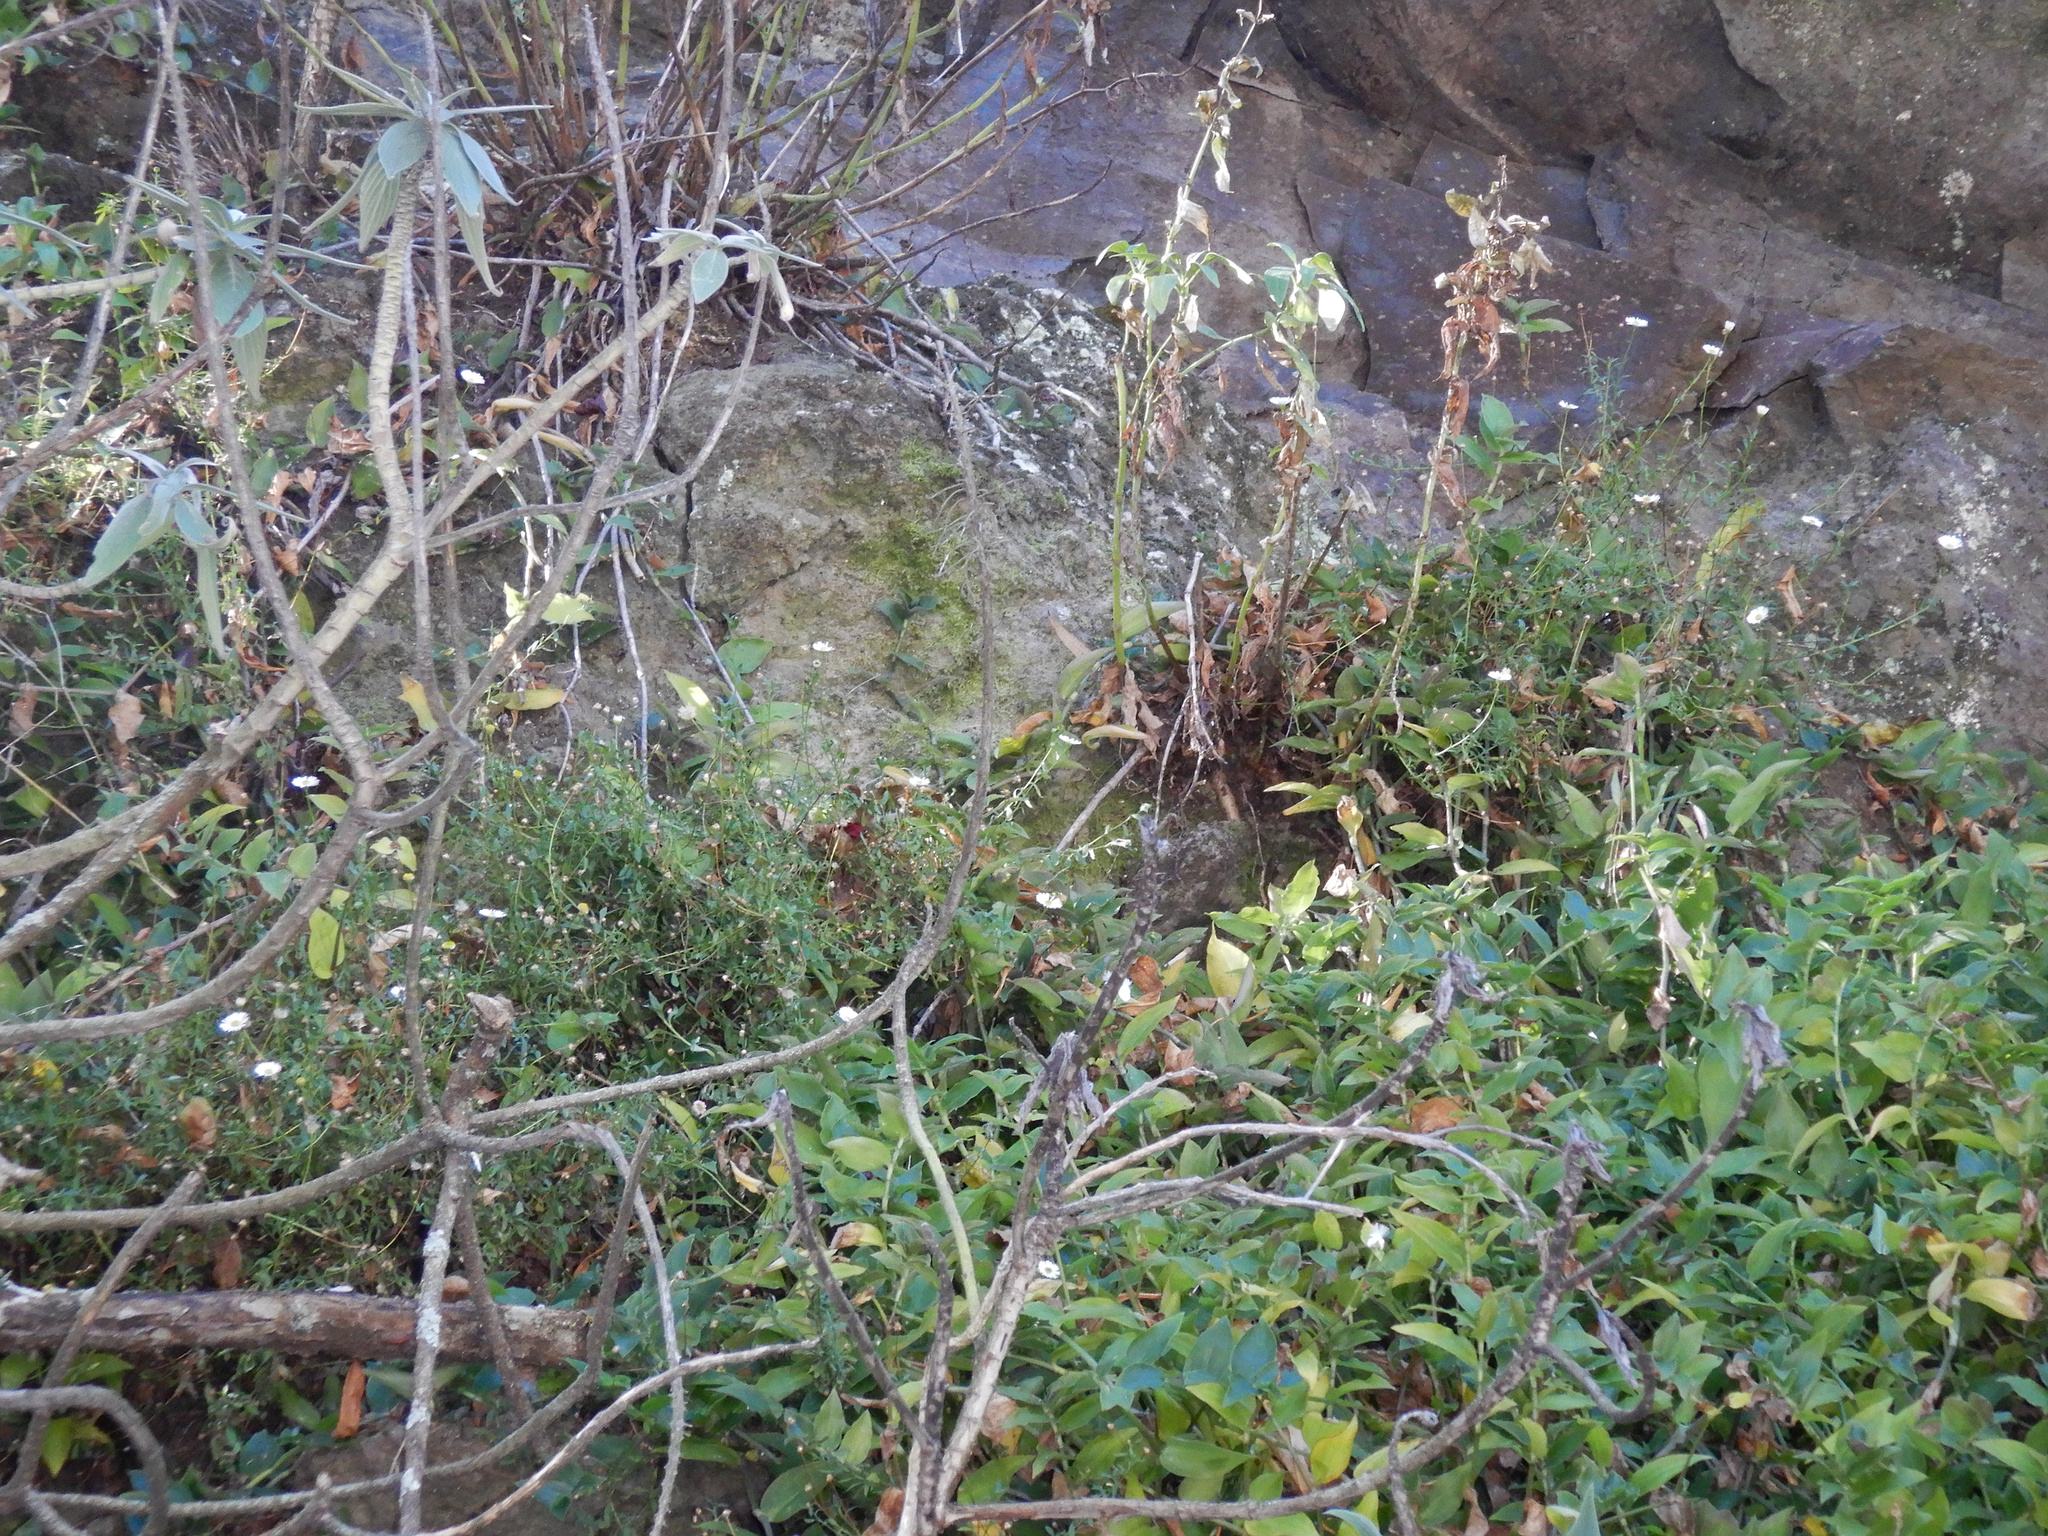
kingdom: Plantae
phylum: Tracheophyta
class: Magnoliopsida
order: Asterales
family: Asteraceae
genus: Erigeron
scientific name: Erigeron karvinskianus
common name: Mexican fleabane
